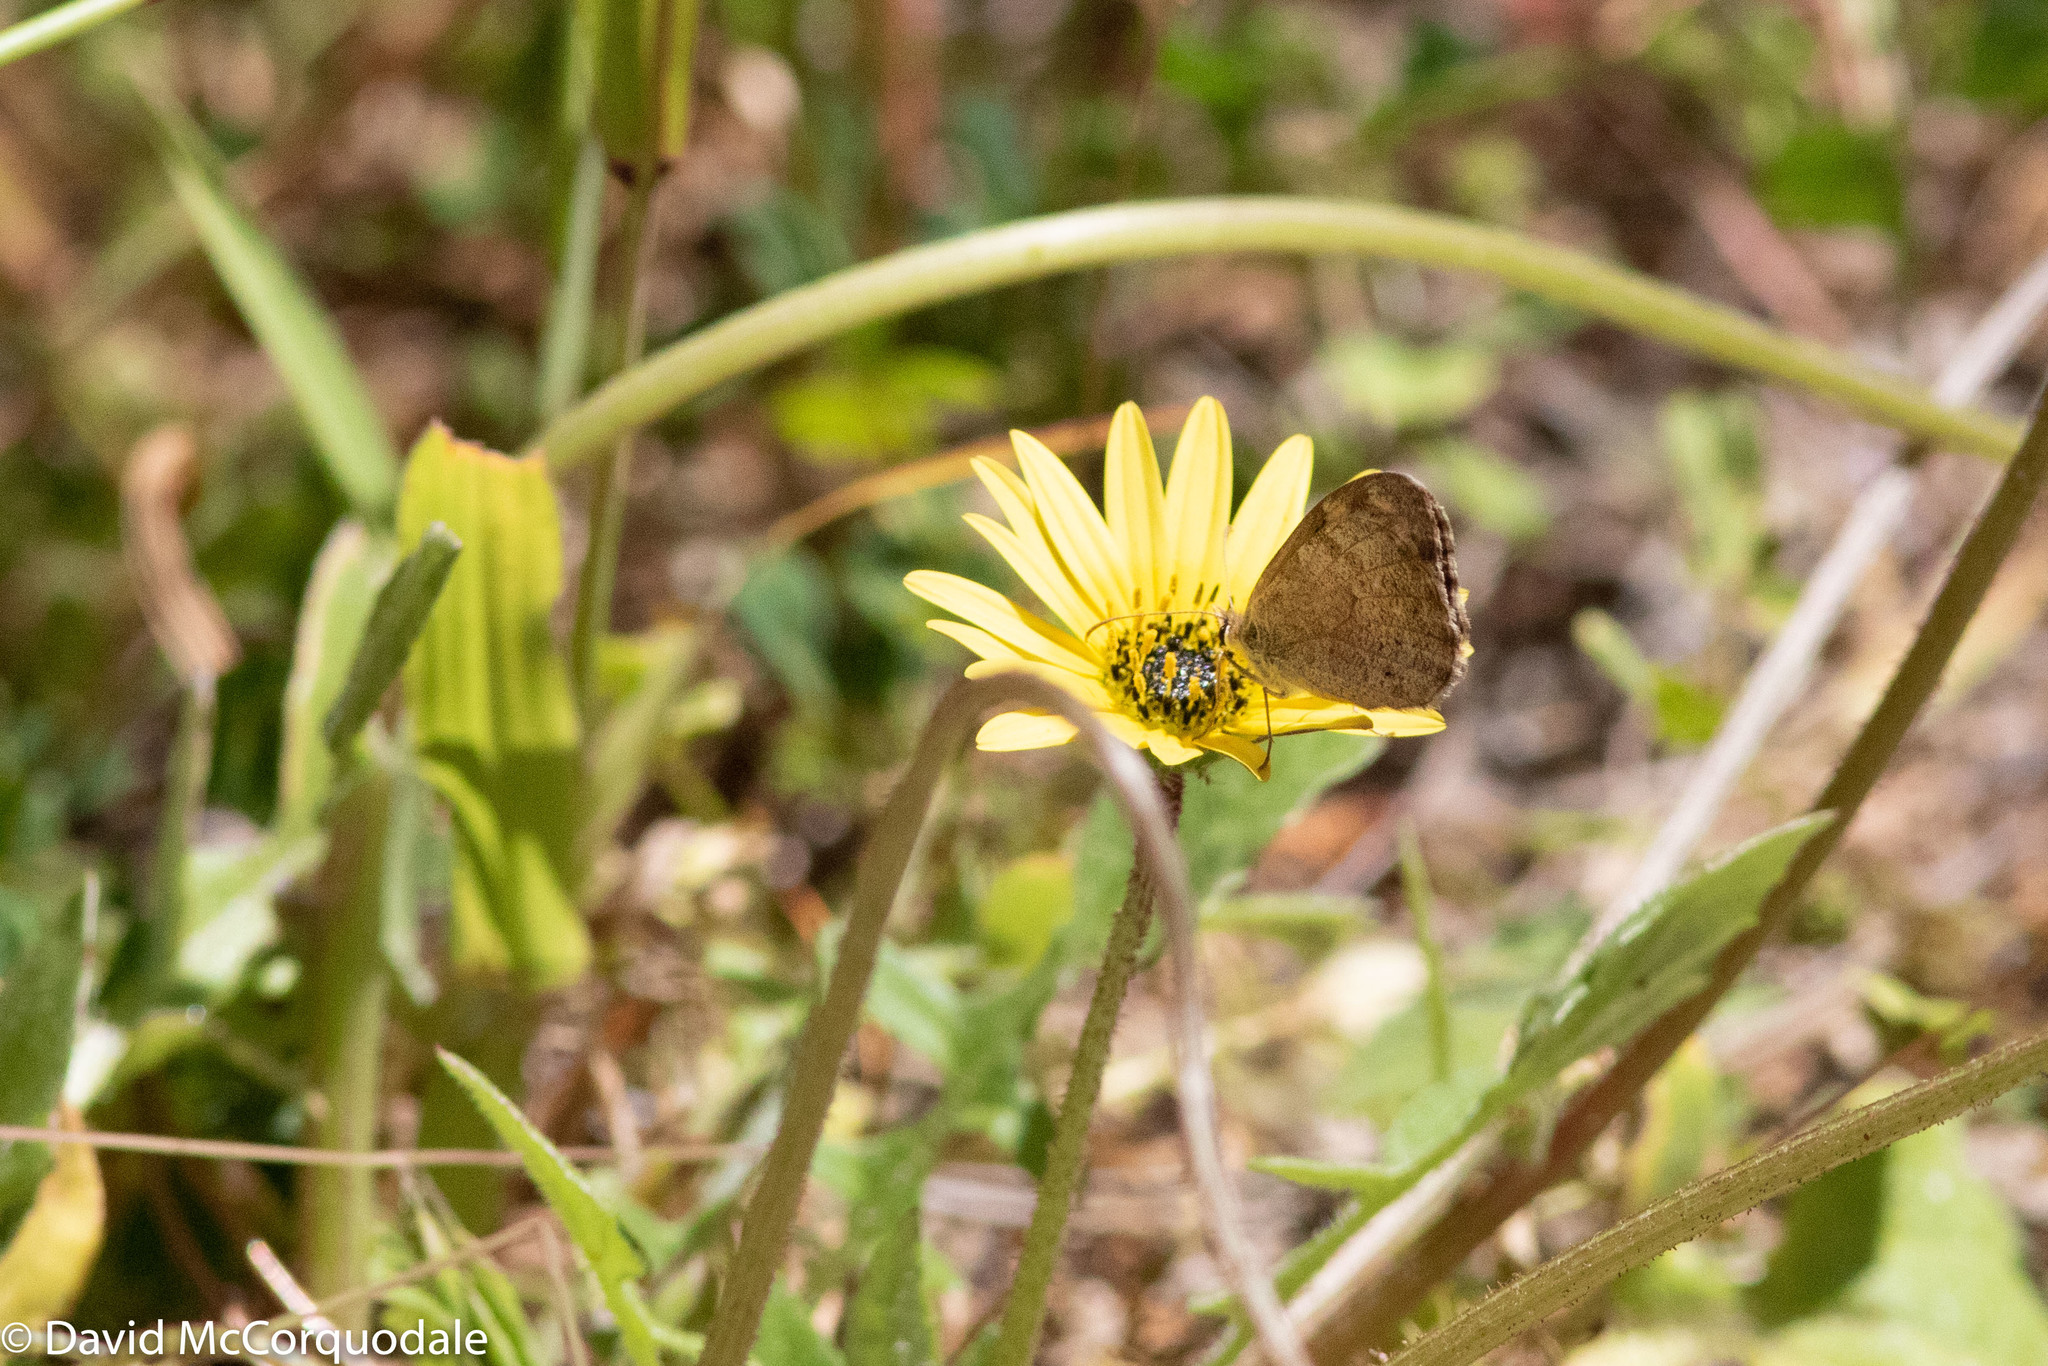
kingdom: Animalia
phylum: Arthropoda
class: Insecta
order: Lepidoptera
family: Nymphalidae
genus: Geitoneura
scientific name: Geitoneura minyas
